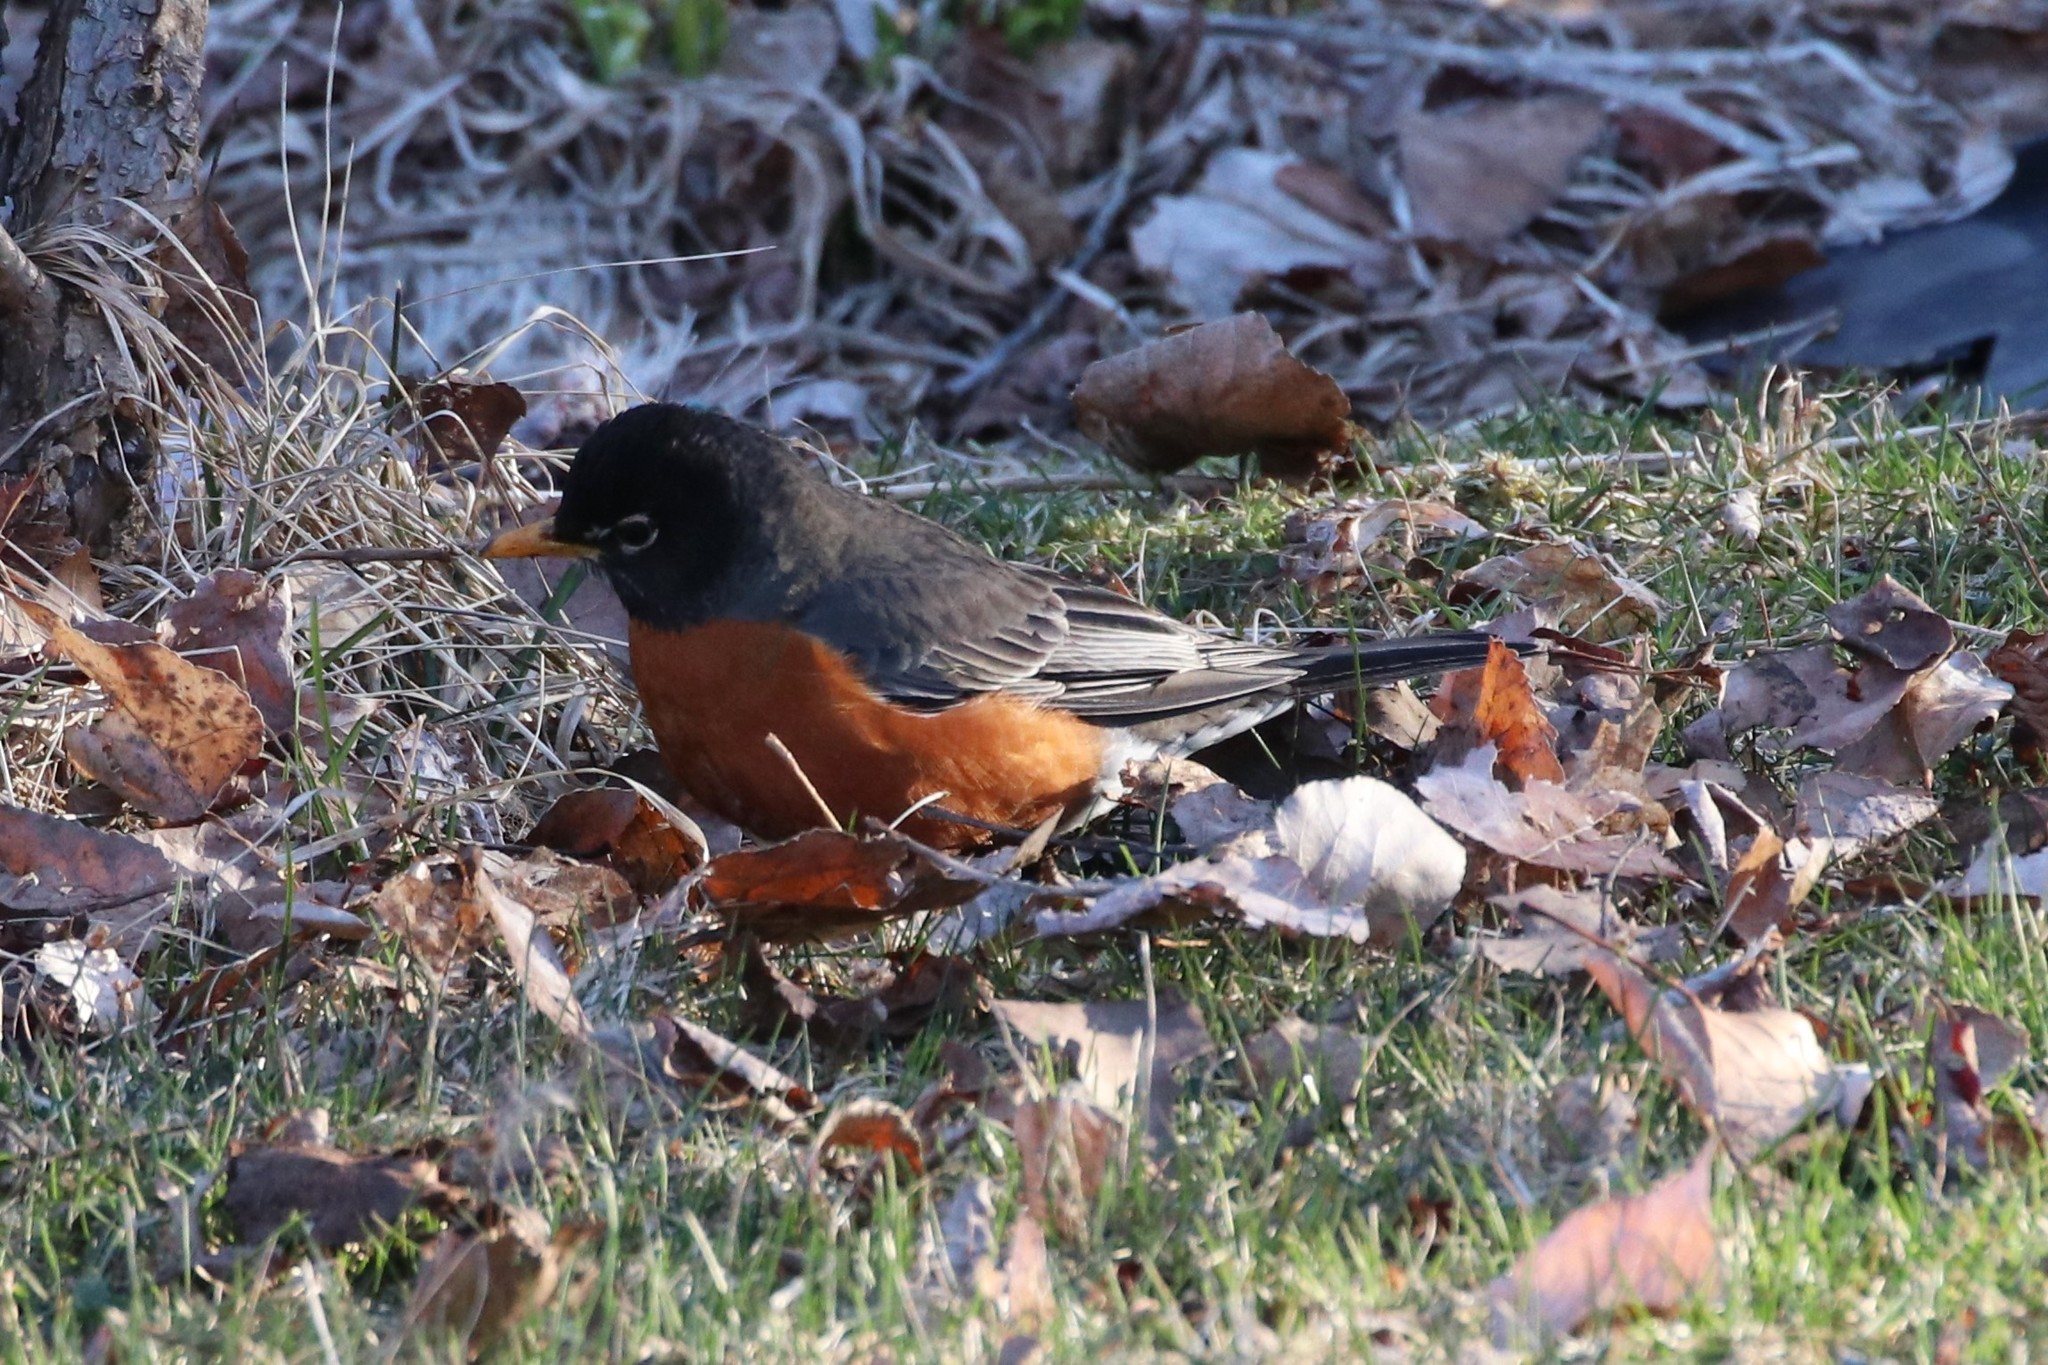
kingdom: Animalia
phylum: Chordata
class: Aves
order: Passeriformes
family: Turdidae
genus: Turdus
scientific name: Turdus migratorius
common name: American robin
